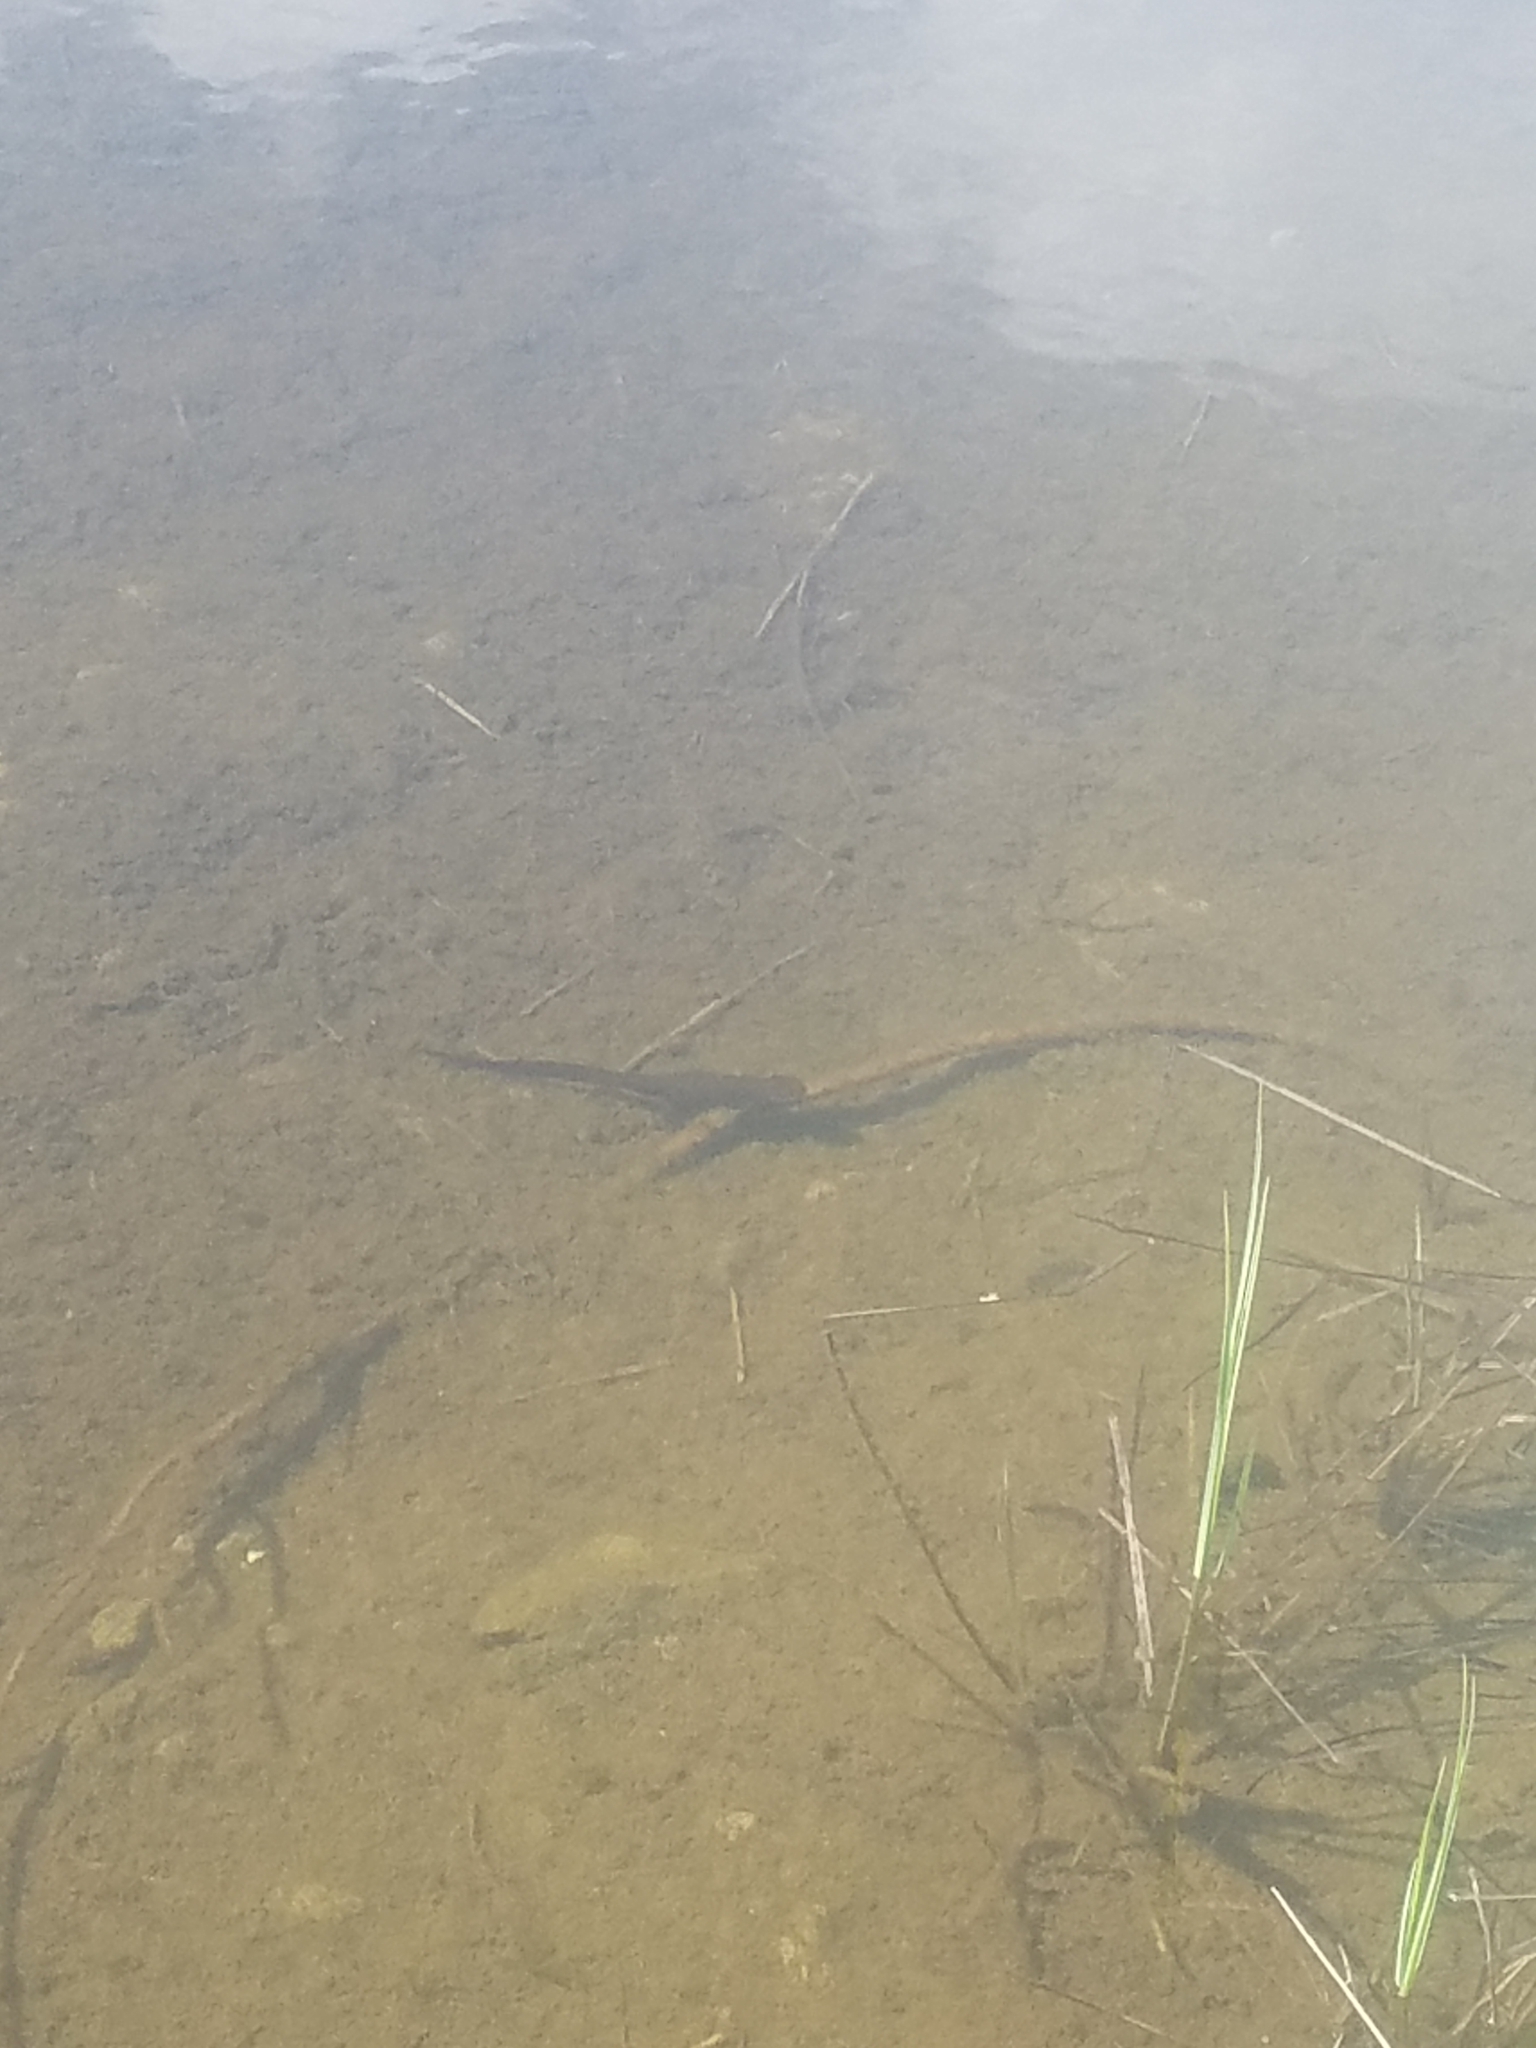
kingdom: Animalia
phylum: Chordata
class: Amphibia
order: Caudata
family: Salamandridae
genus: Taricha
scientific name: Taricha granulosa
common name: Roughskin newt
